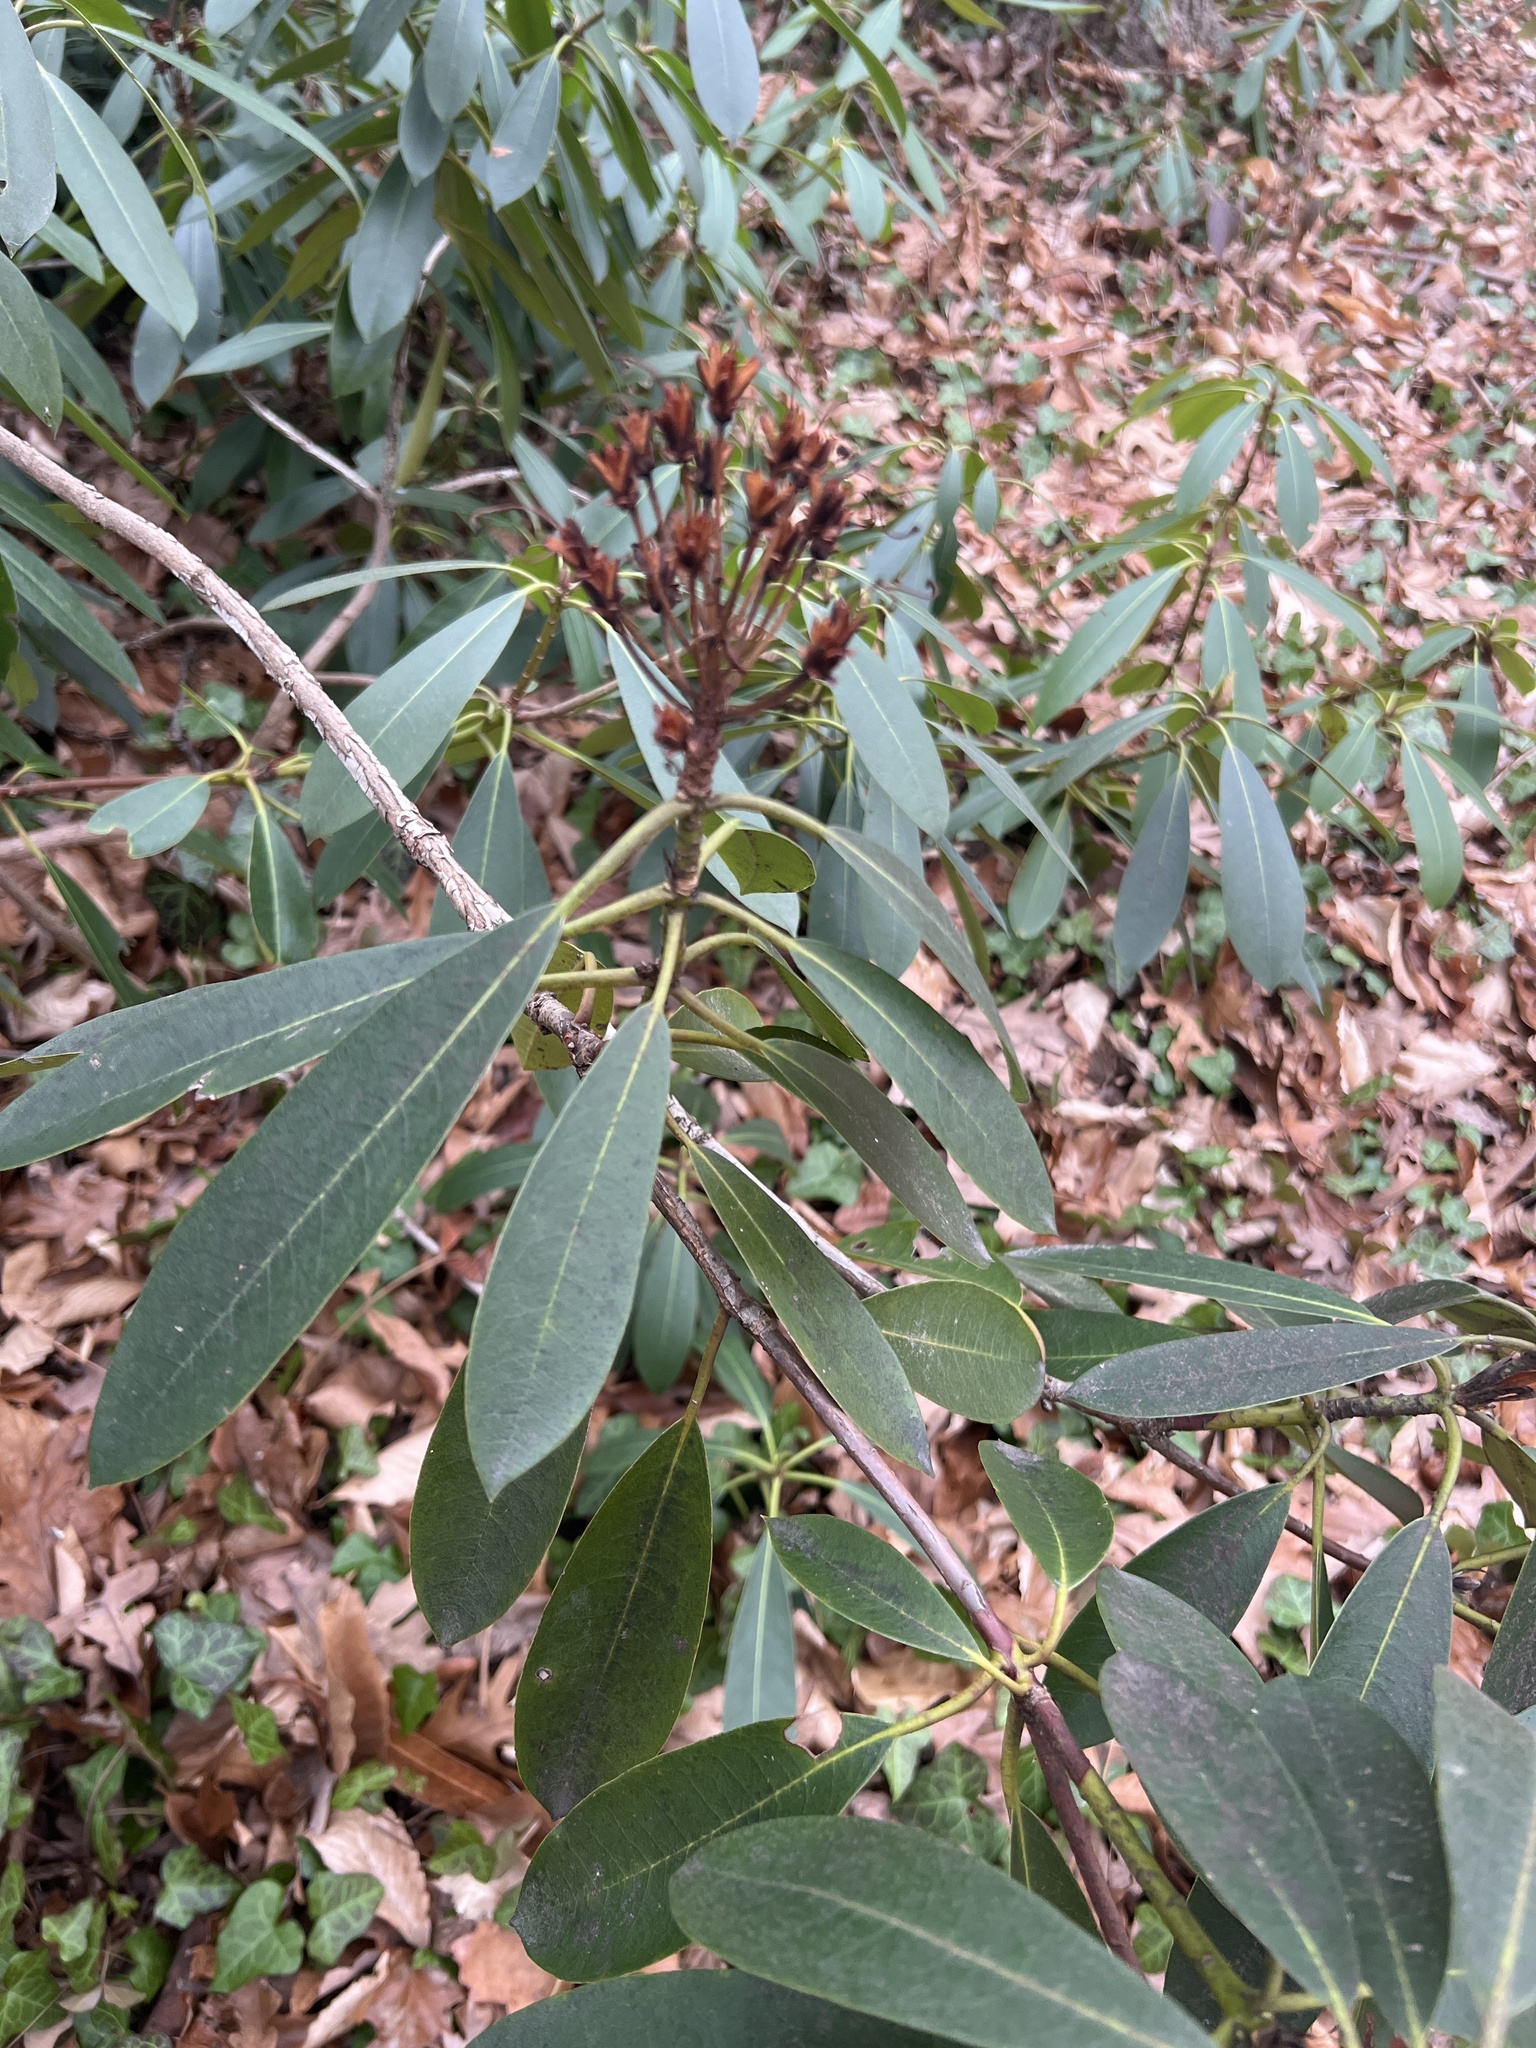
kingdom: Plantae
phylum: Tracheophyta
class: Magnoliopsida
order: Ericales
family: Ericaceae
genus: Kalmia
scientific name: Kalmia latifolia
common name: Mountain-laurel
